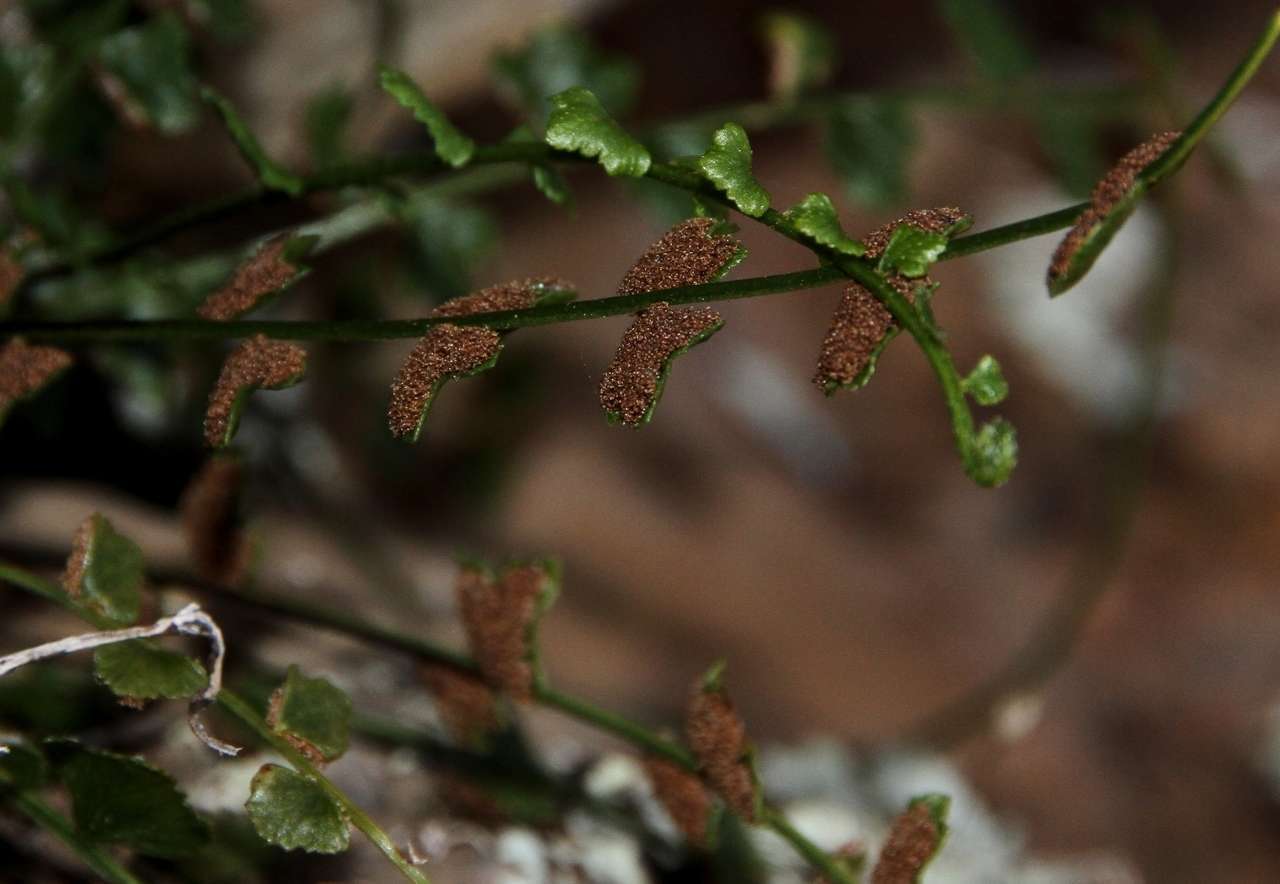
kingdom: Plantae
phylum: Tracheophyta
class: Polypodiopsida
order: Polypodiales
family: Aspleniaceae
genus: Asplenium
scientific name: Asplenium flabellifolium
